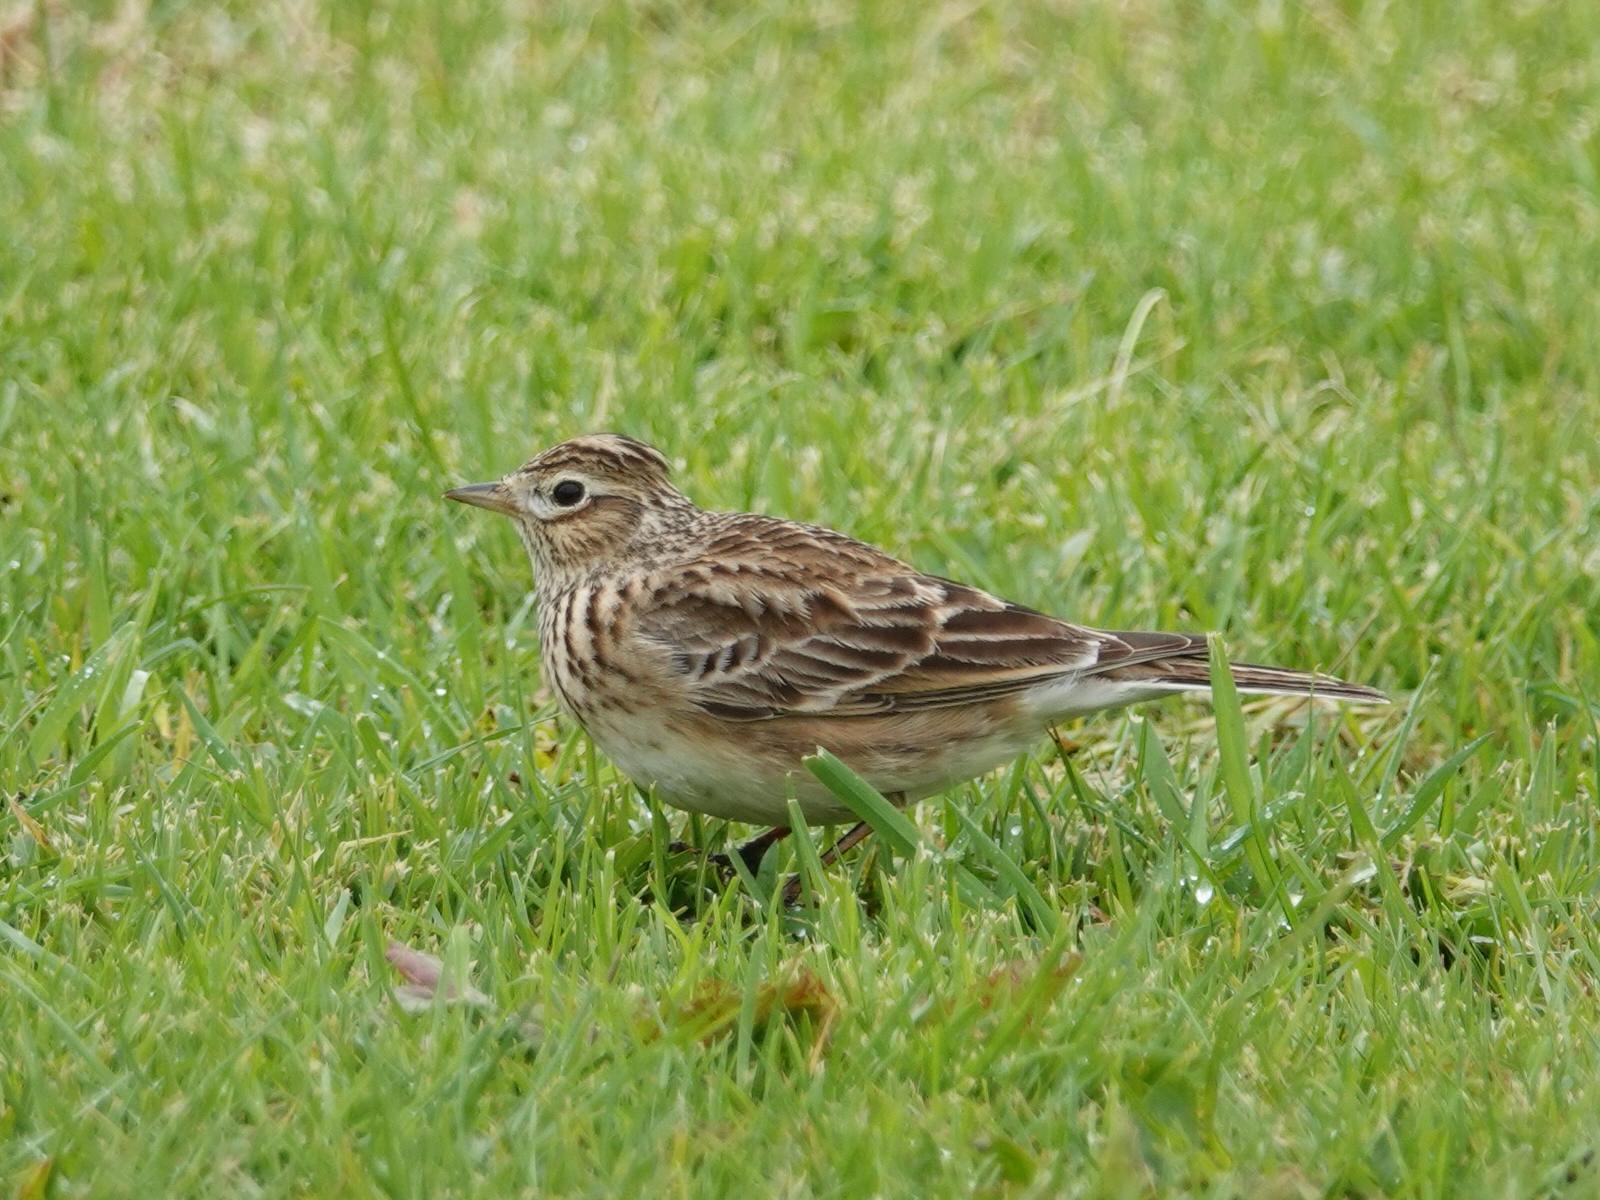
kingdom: Animalia
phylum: Chordata
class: Aves
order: Passeriformes
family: Alaudidae
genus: Alauda
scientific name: Alauda arvensis
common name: Eurasian skylark
